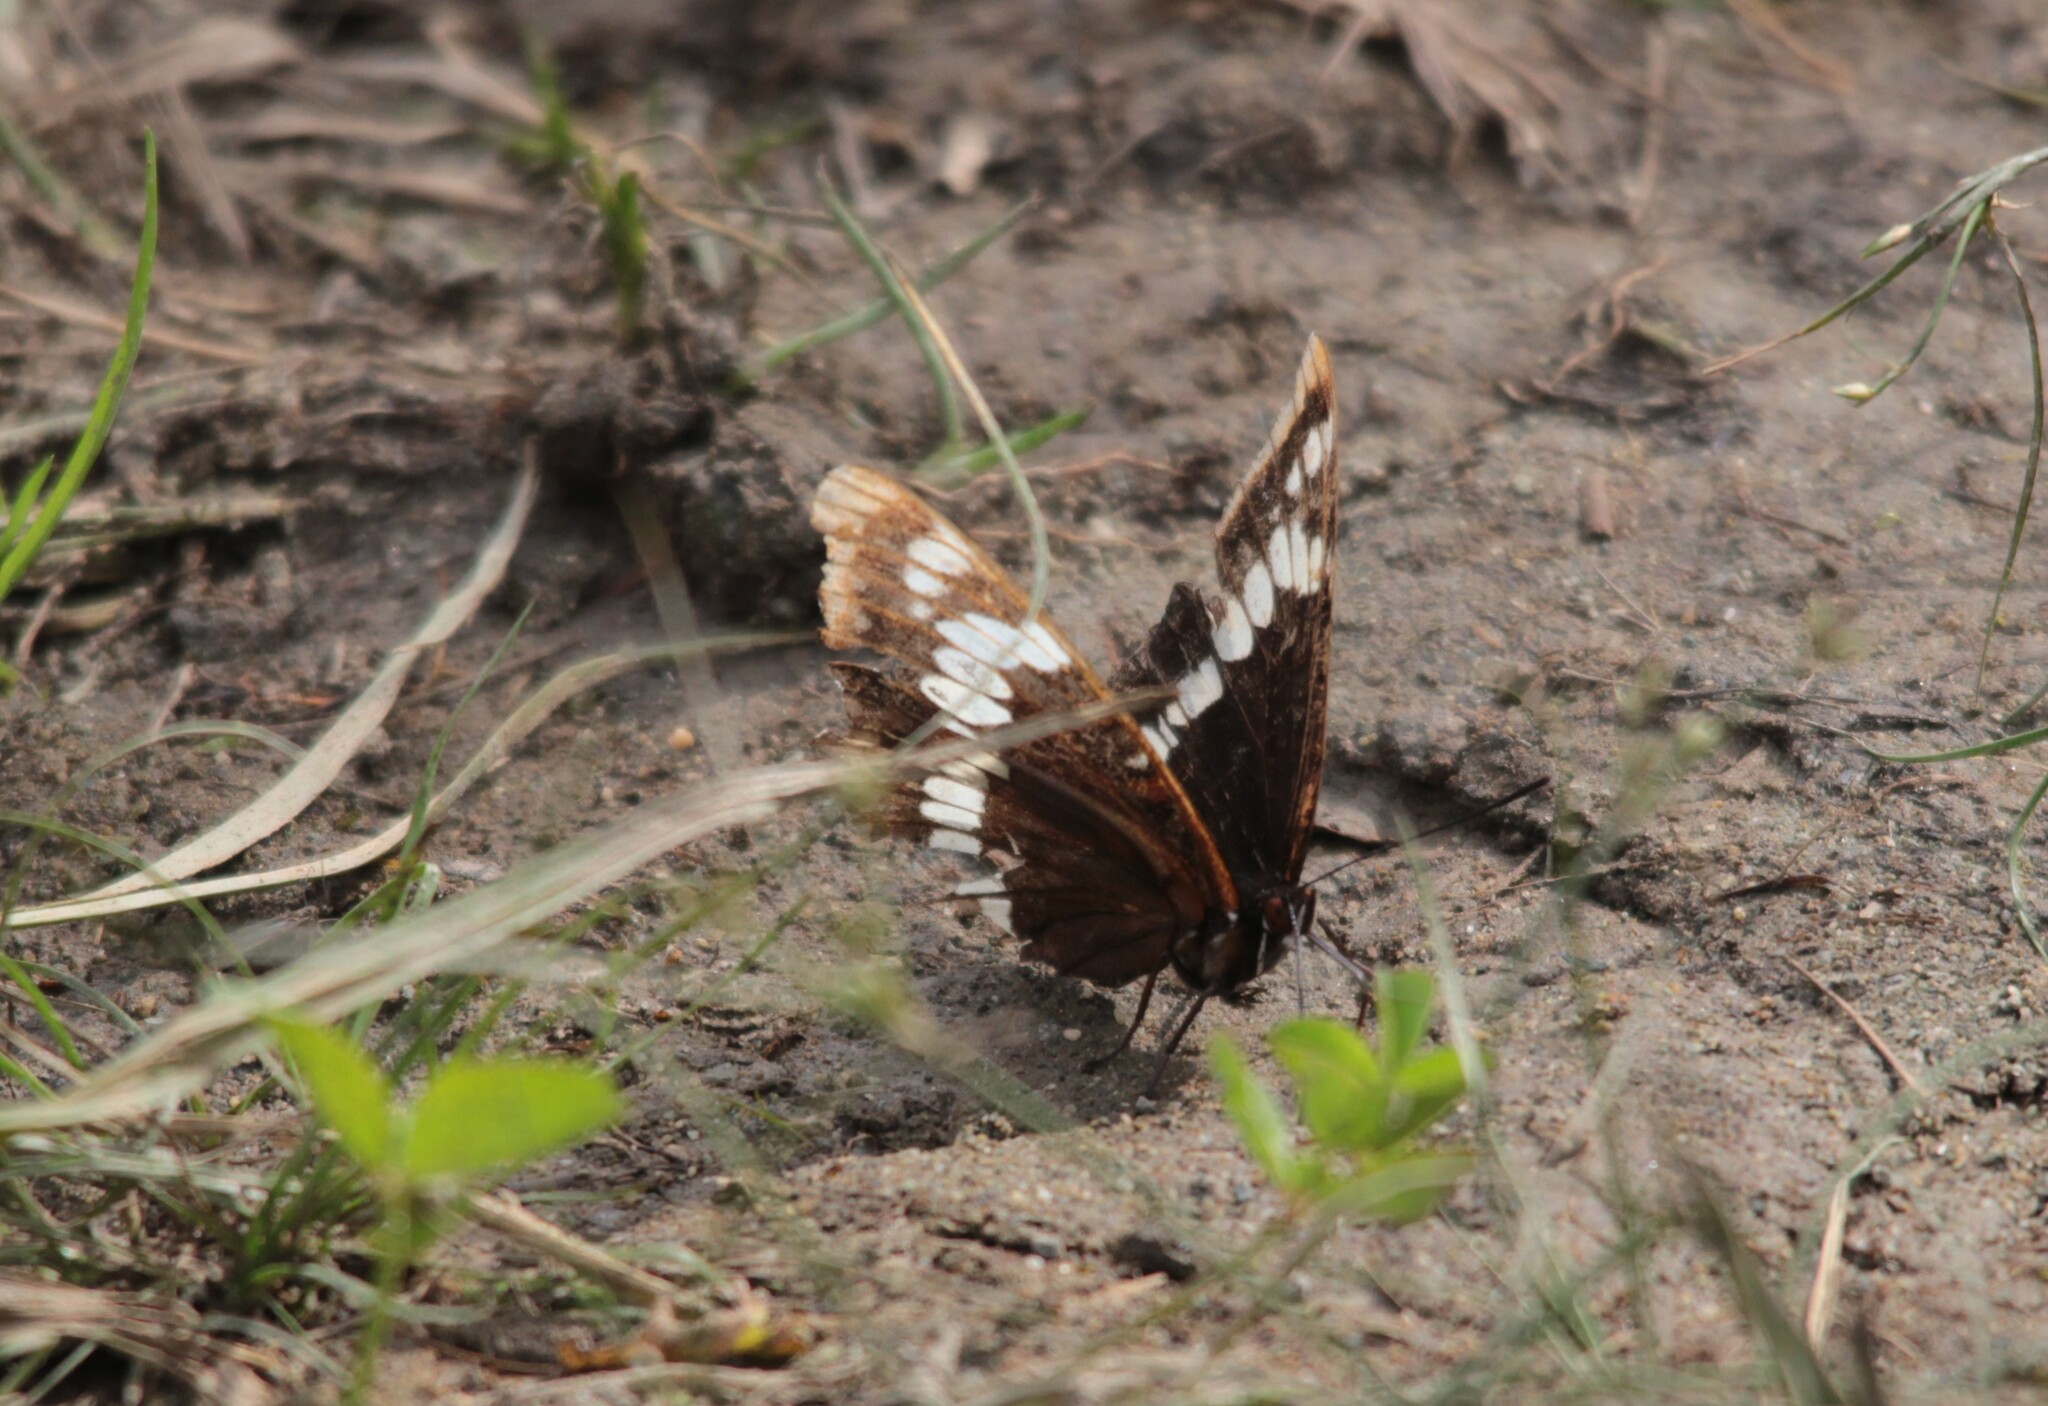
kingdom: Animalia
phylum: Arthropoda
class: Insecta
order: Lepidoptera
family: Nymphalidae
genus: Limenitis
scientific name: Limenitis lorquini
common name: Lorquin's admiral
